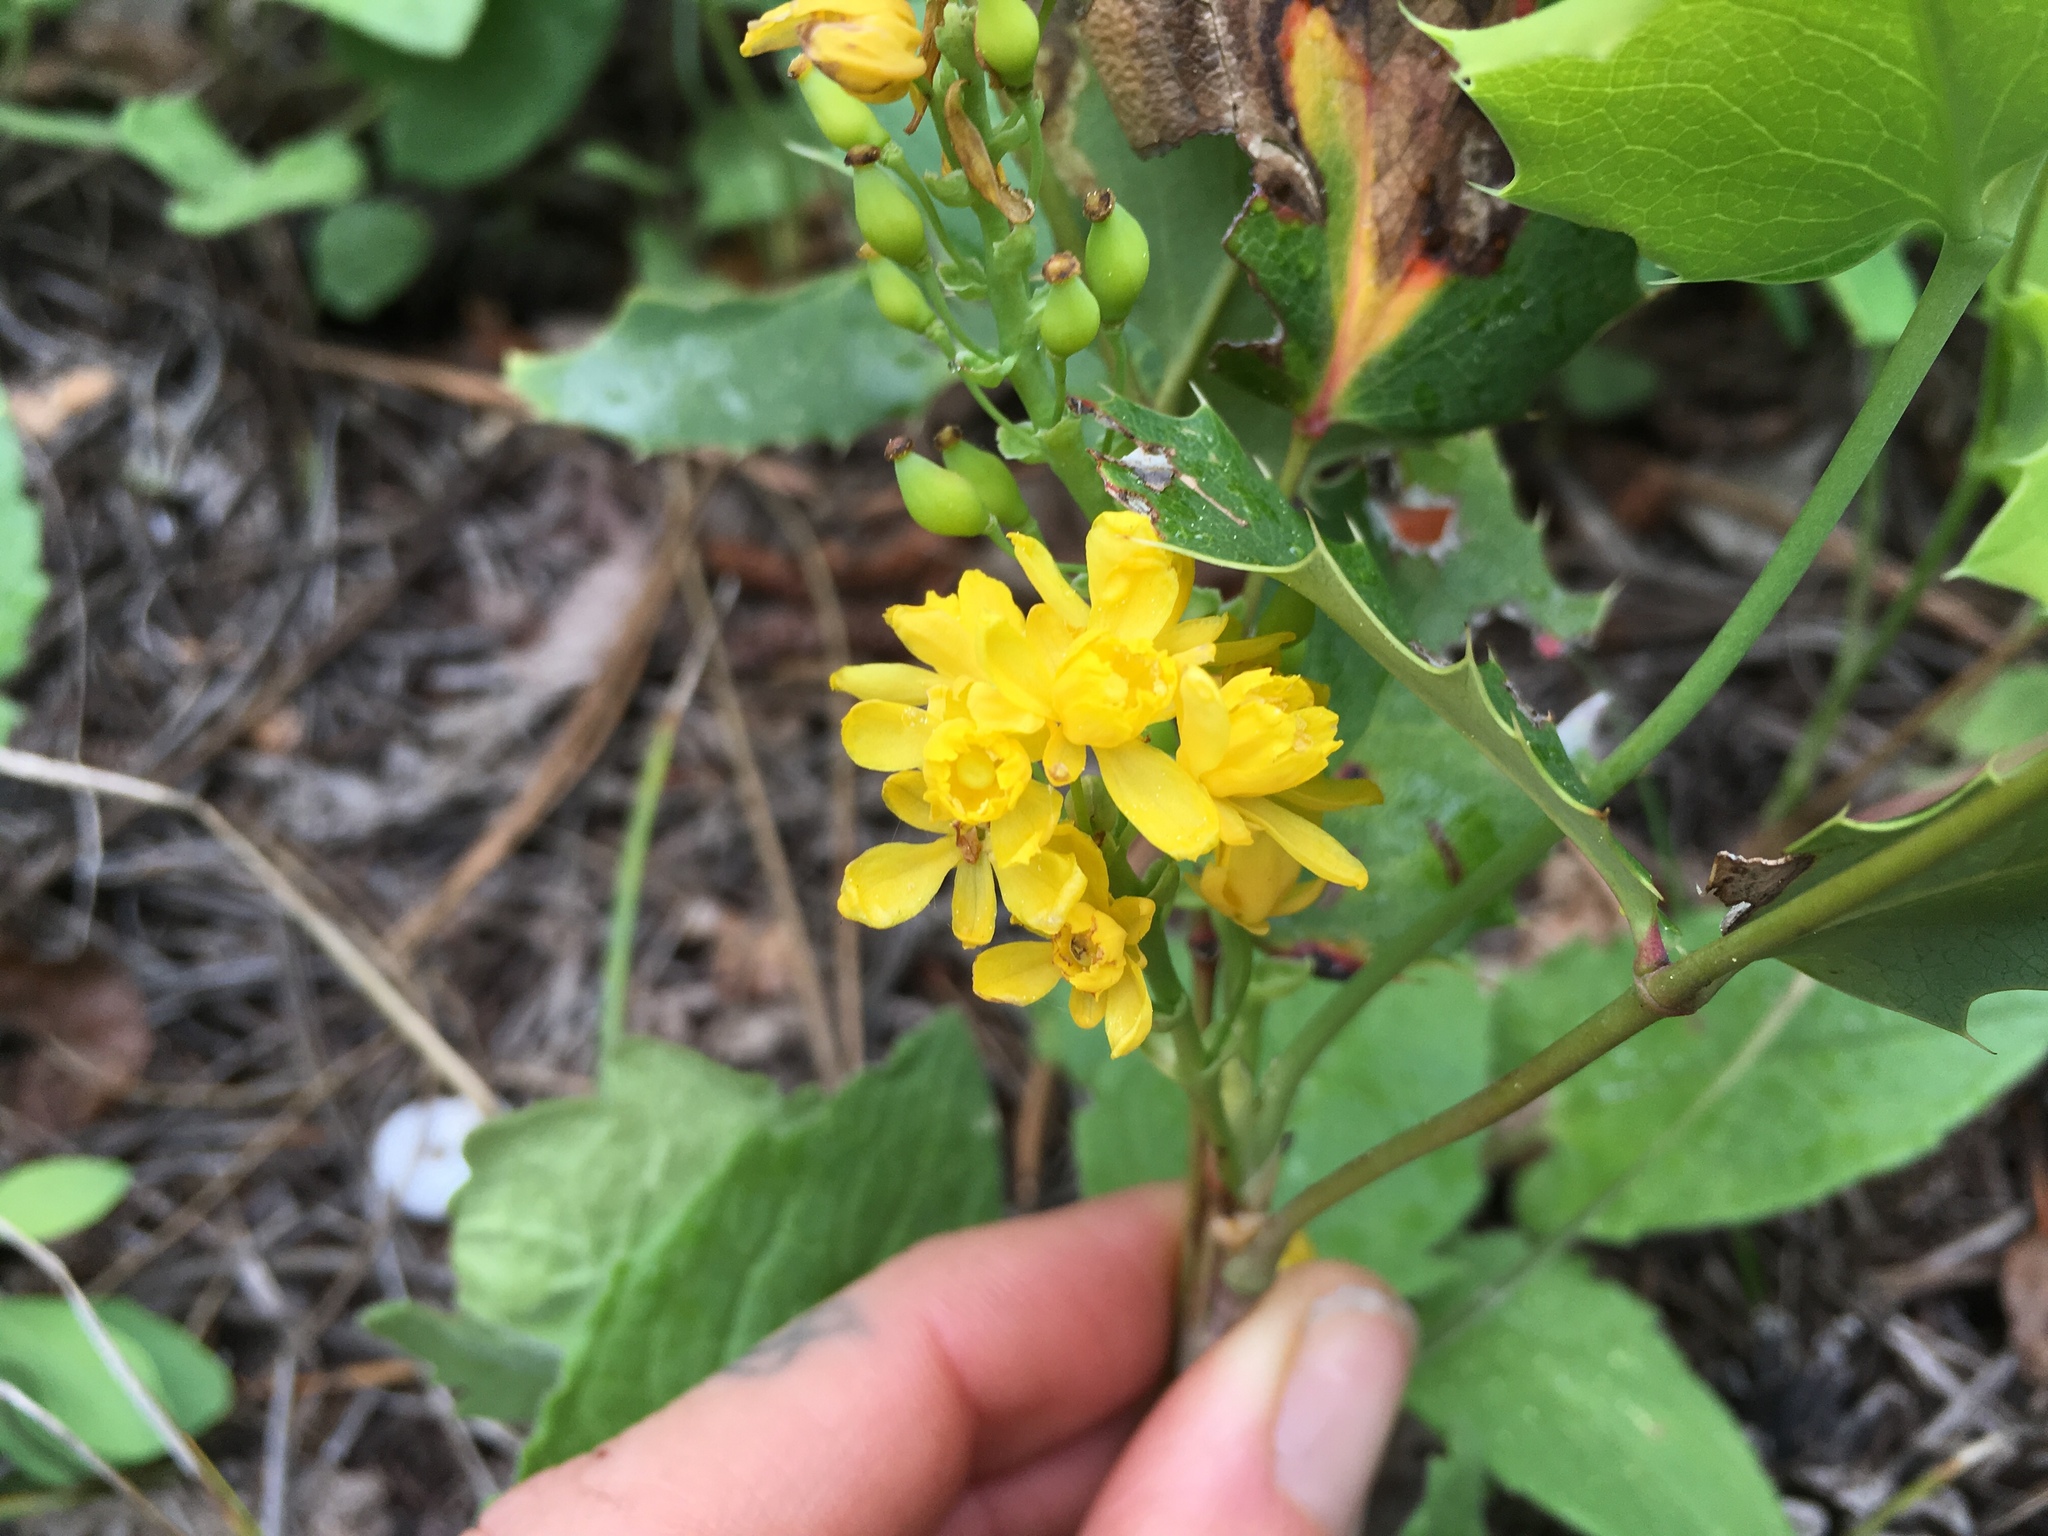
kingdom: Plantae
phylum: Tracheophyta
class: Magnoliopsida
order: Ranunculales
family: Berberidaceae
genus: Mahonia
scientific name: Mahonia repens
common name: Creeping oregon-grape
